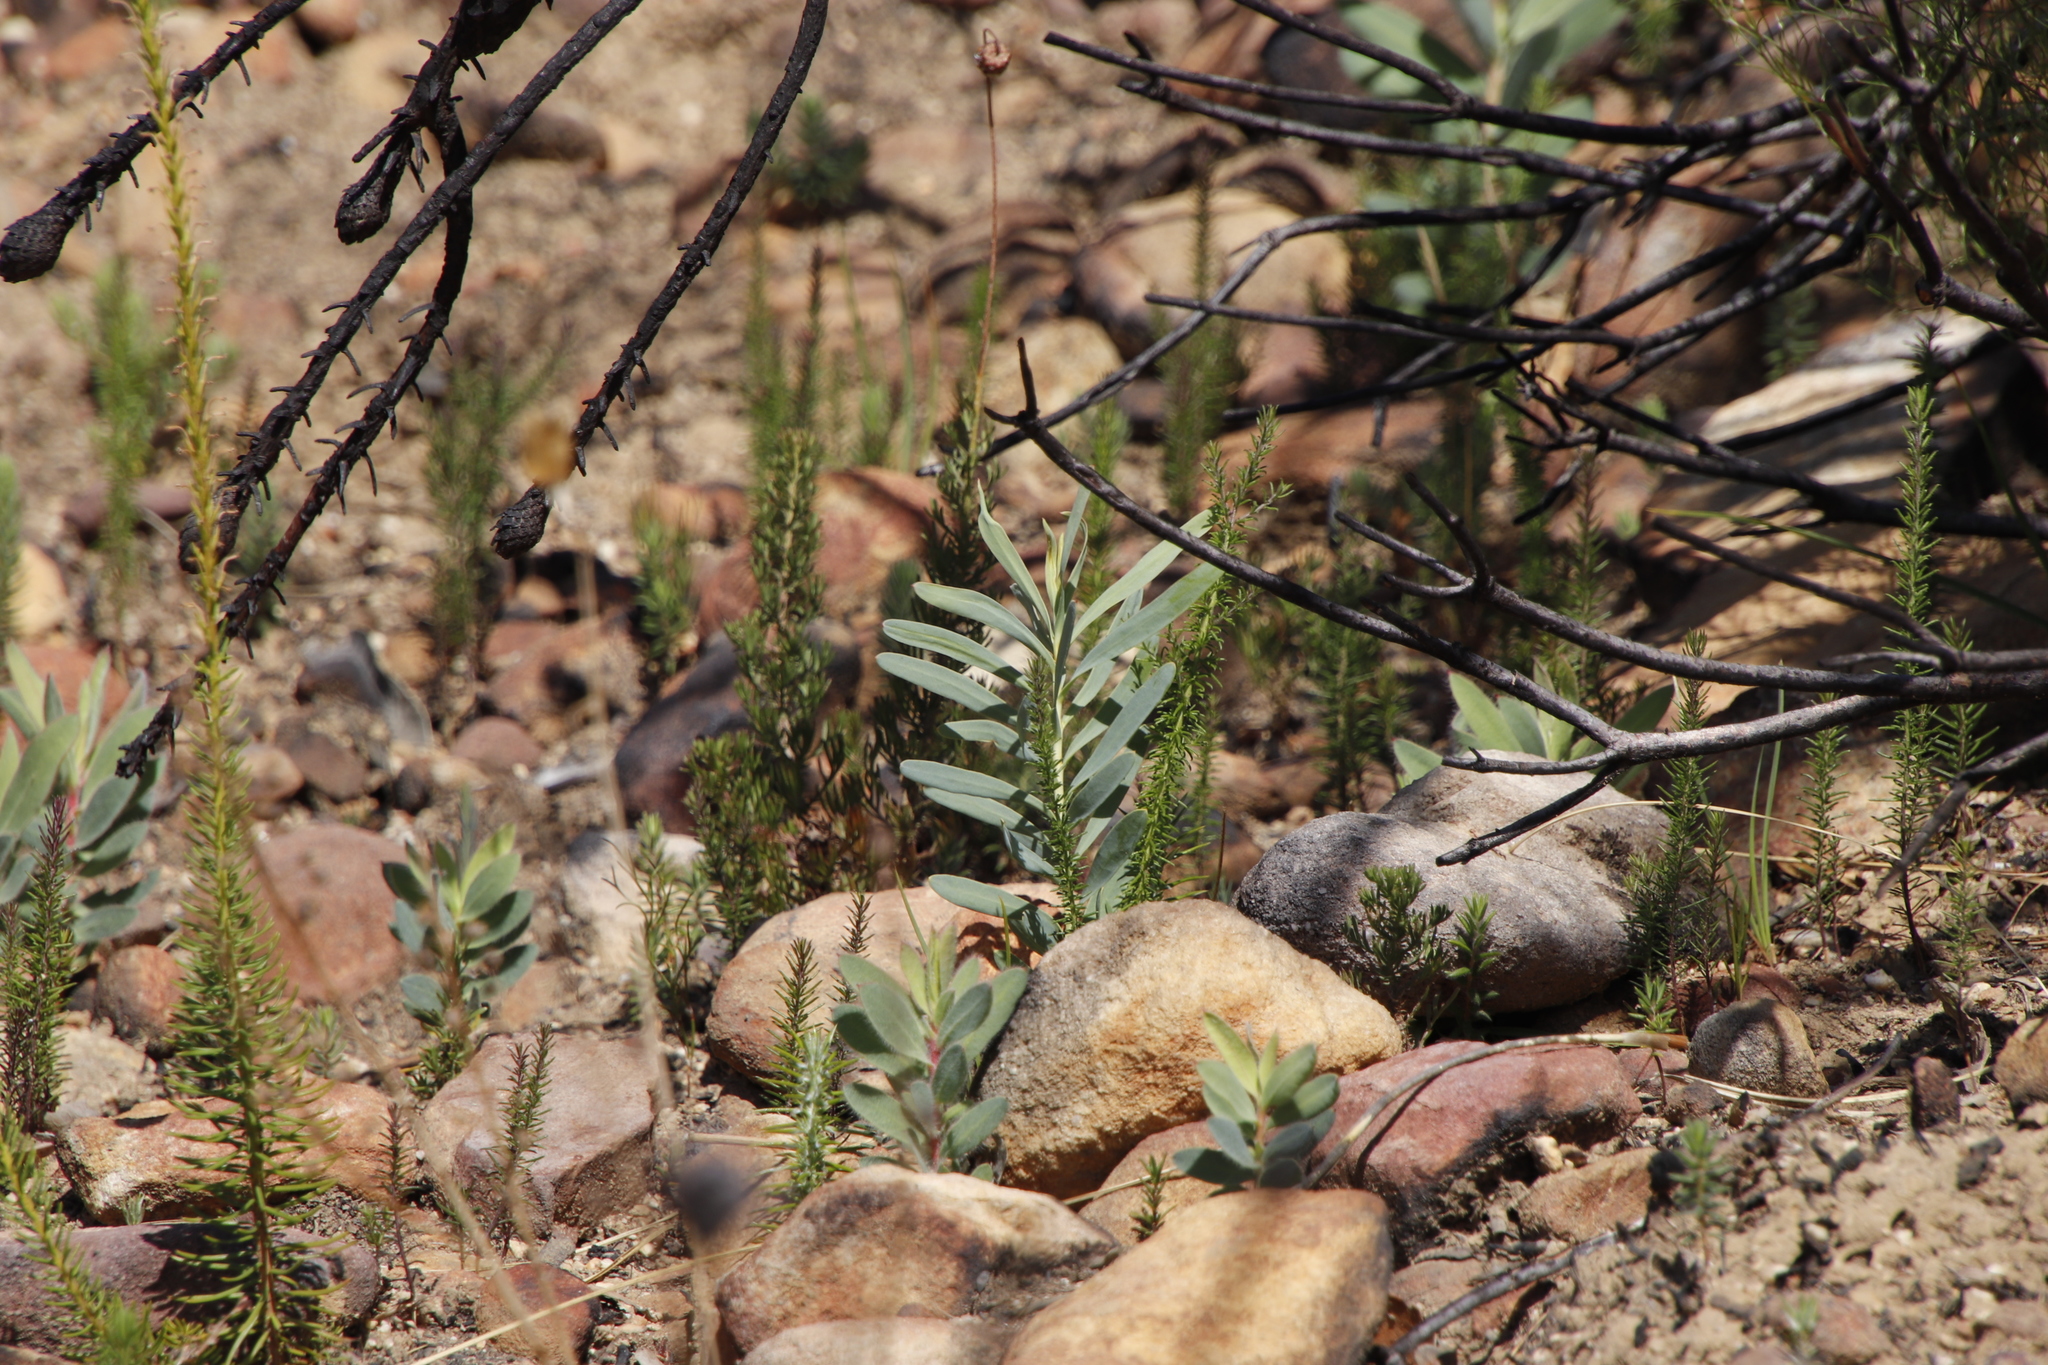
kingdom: Plantae
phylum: Tracheophyta
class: Magnoliopsida
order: Proteales
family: Proteaceae
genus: Protea
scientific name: Protea repens
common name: Sugarbush
